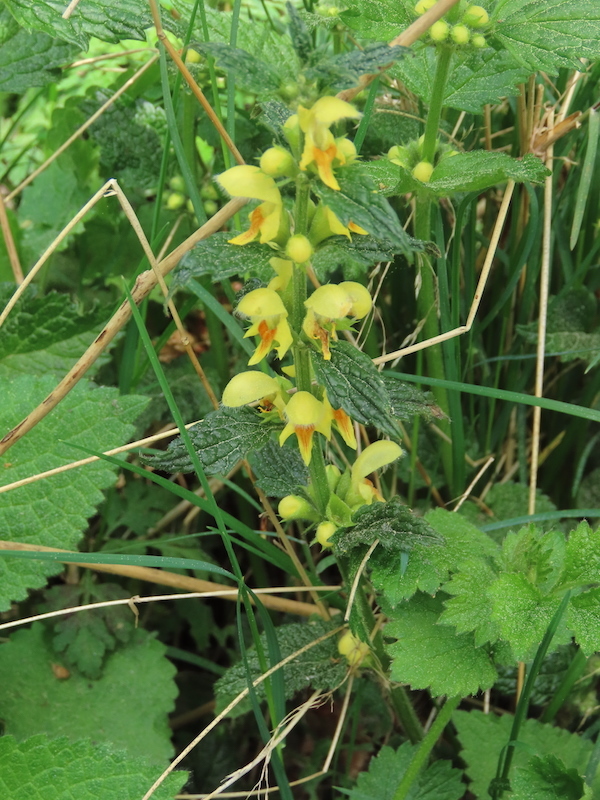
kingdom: Plantae
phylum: Tracheophyta
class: Magnoliopsida
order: Lamiales
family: Lamiaceae
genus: Lamium
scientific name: Lamium galeobdolon
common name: Yellow archangel
